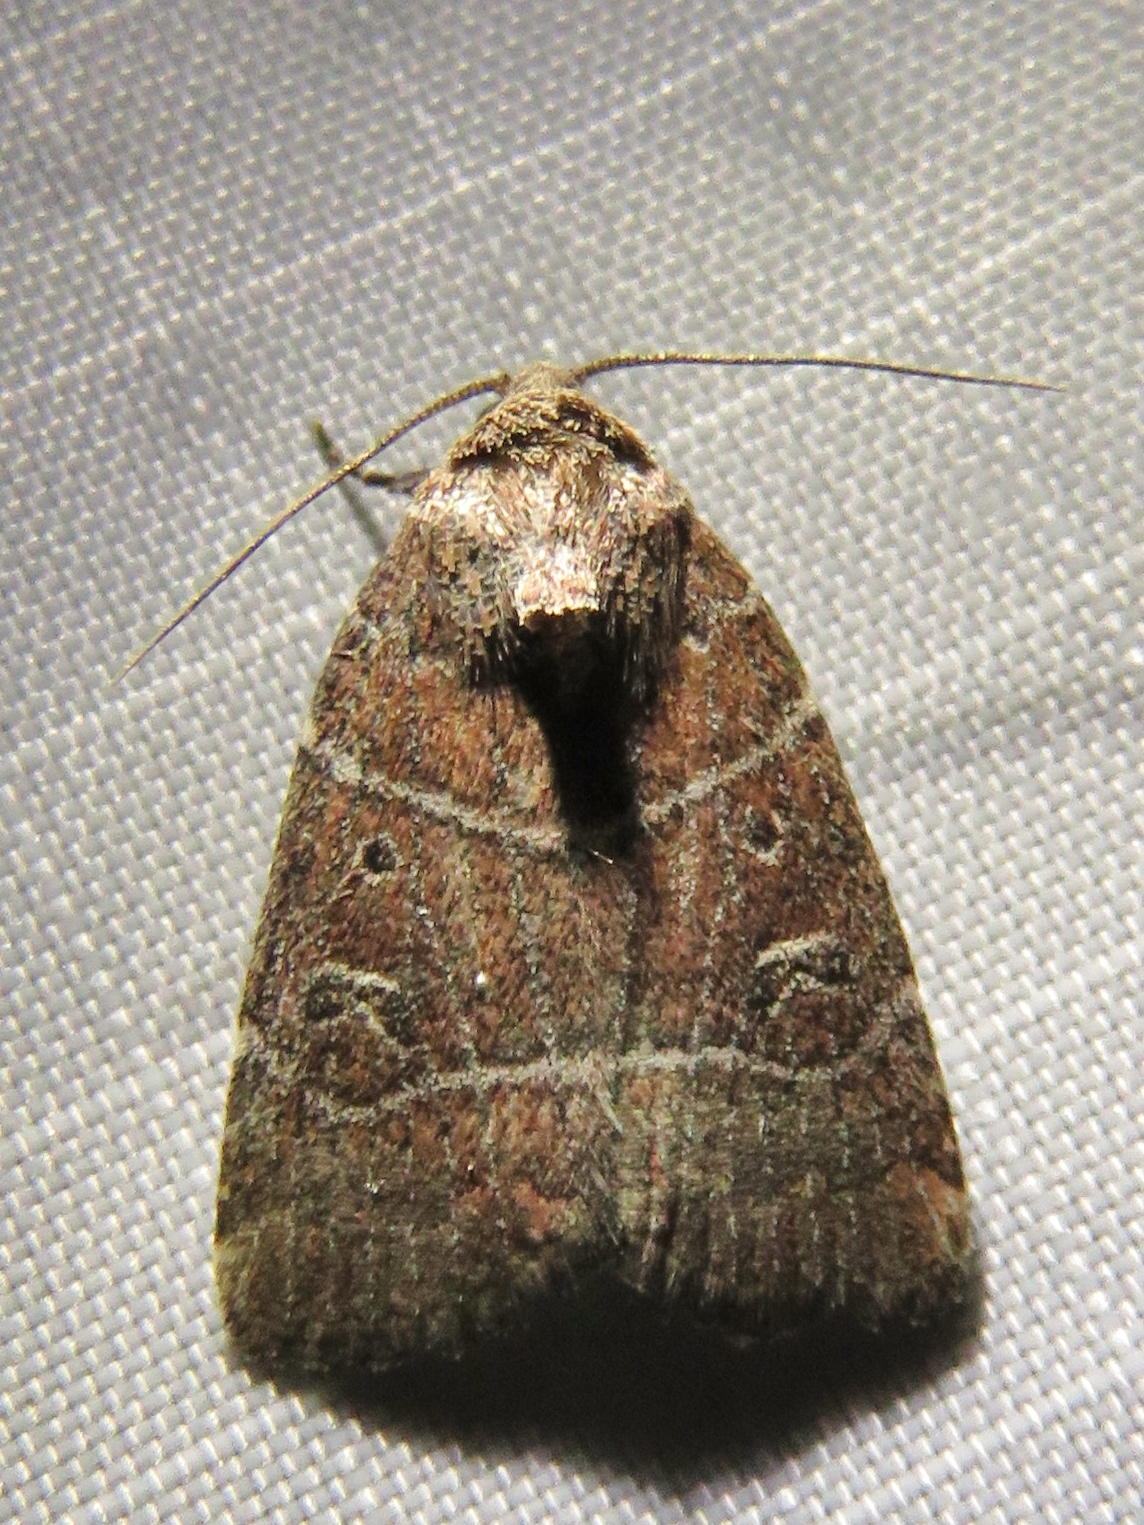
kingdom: Animalia
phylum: Arthropoda
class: Insecta
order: Lepidoptera
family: Noctuidae
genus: Elaphria
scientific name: Elaphria grata
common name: Grateful midget moth
